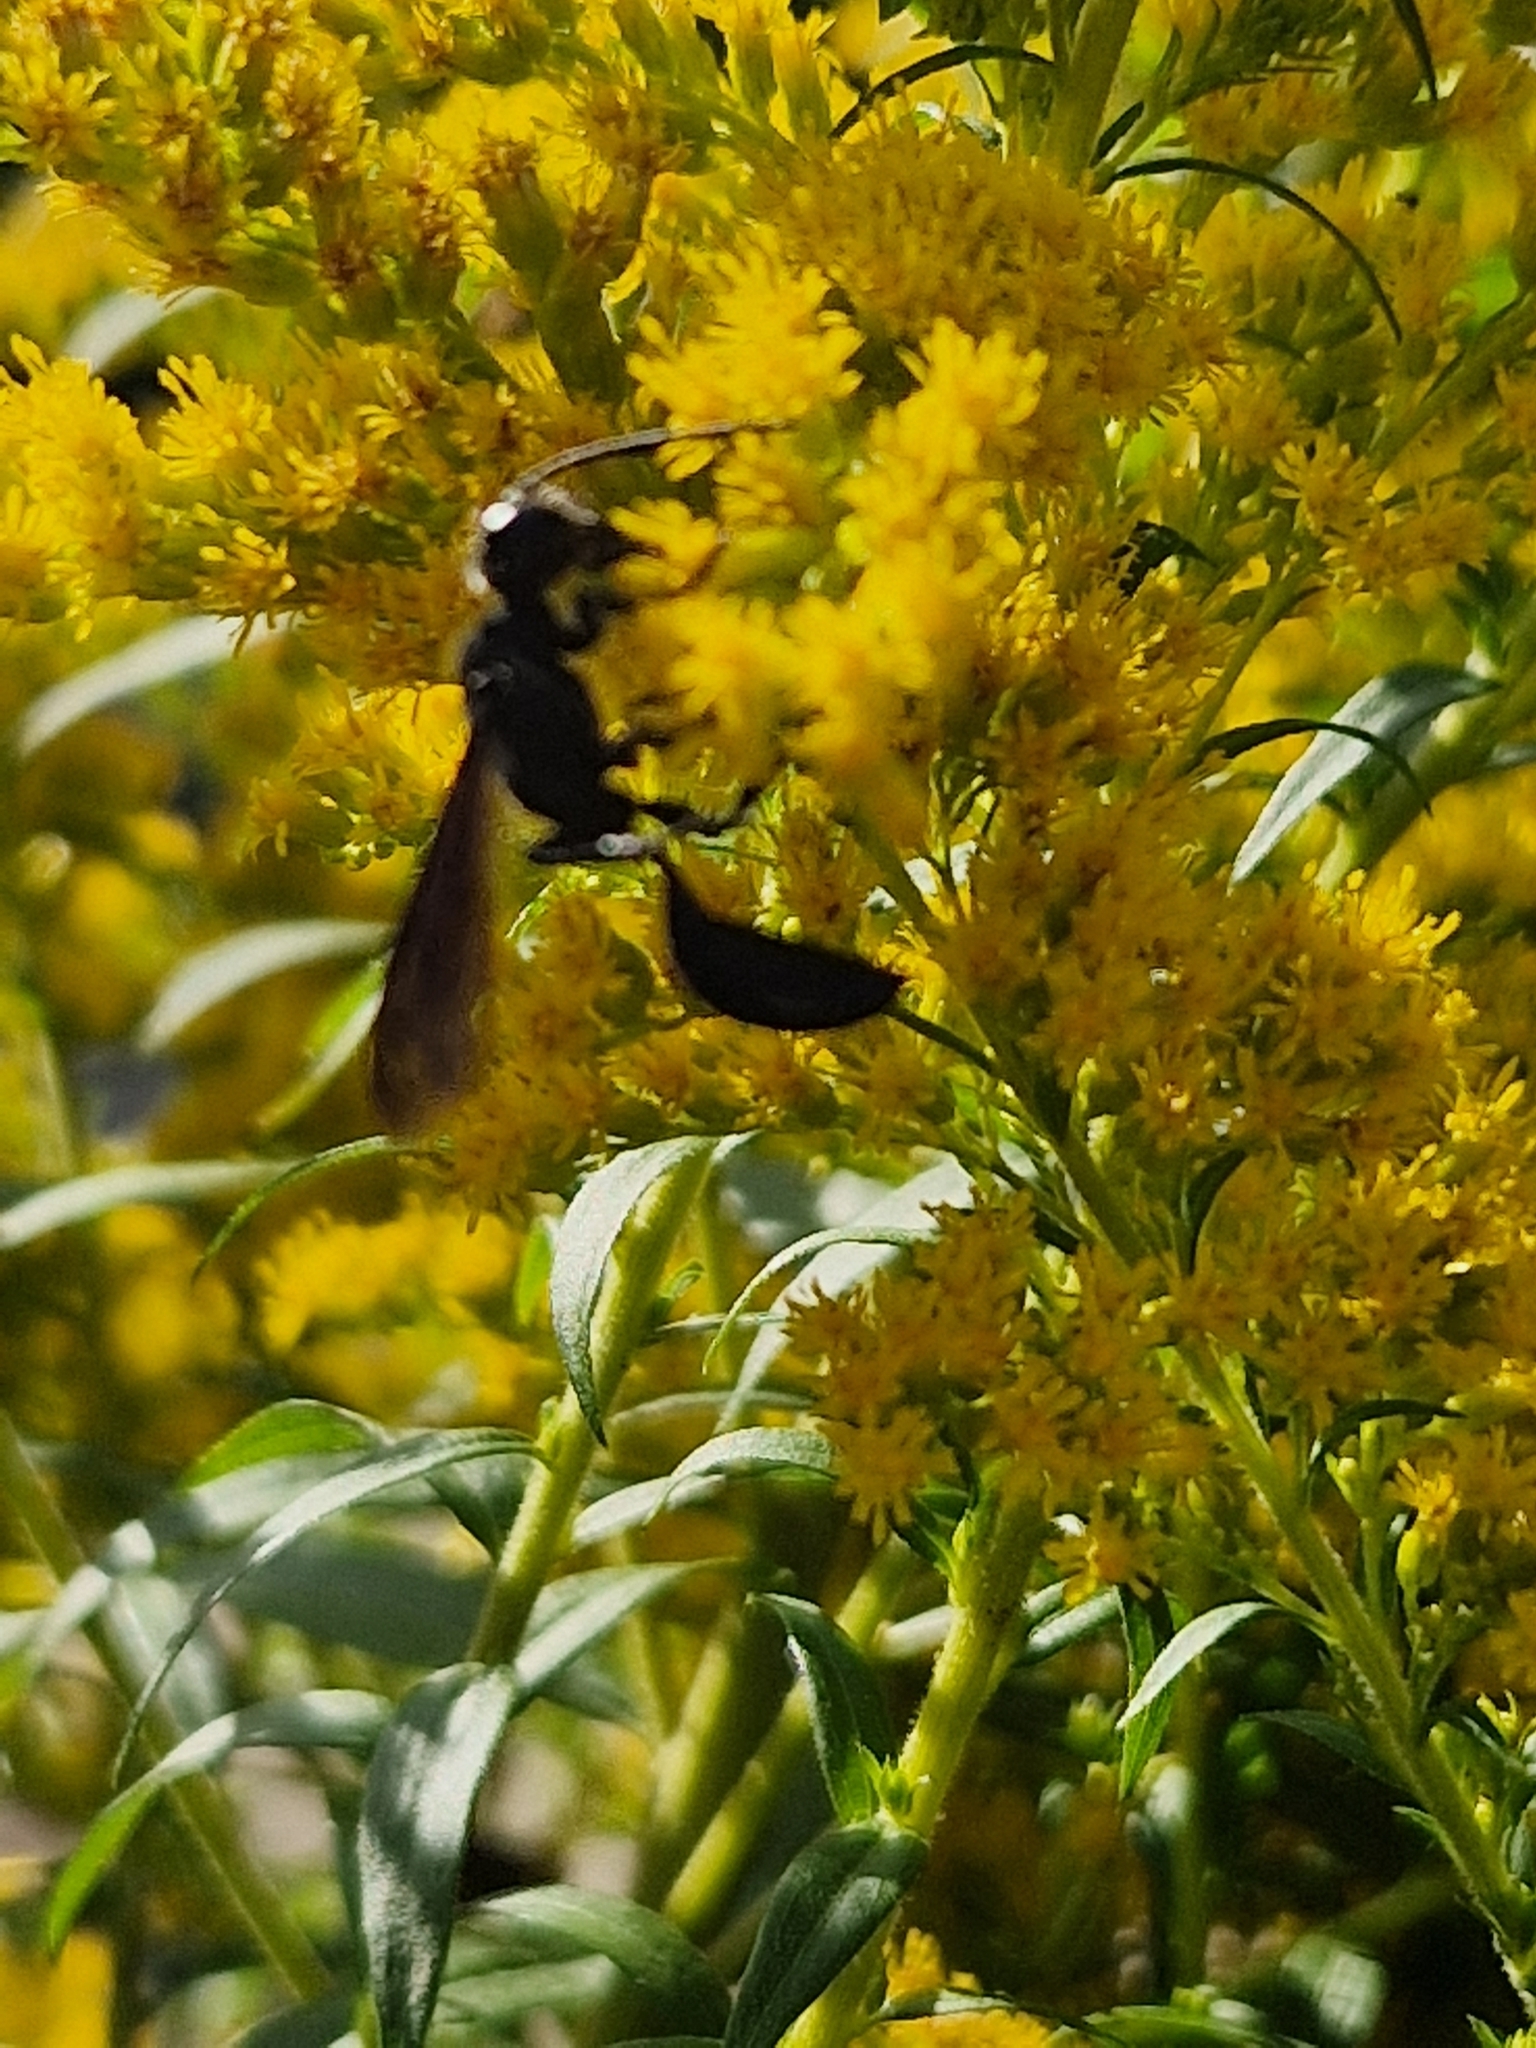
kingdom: Animalia
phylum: Arthropoda
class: Insecta
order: Hymenoptera
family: Sphecidae
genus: Isodontia
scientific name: Isodontia mexicana
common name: Mud dauber
